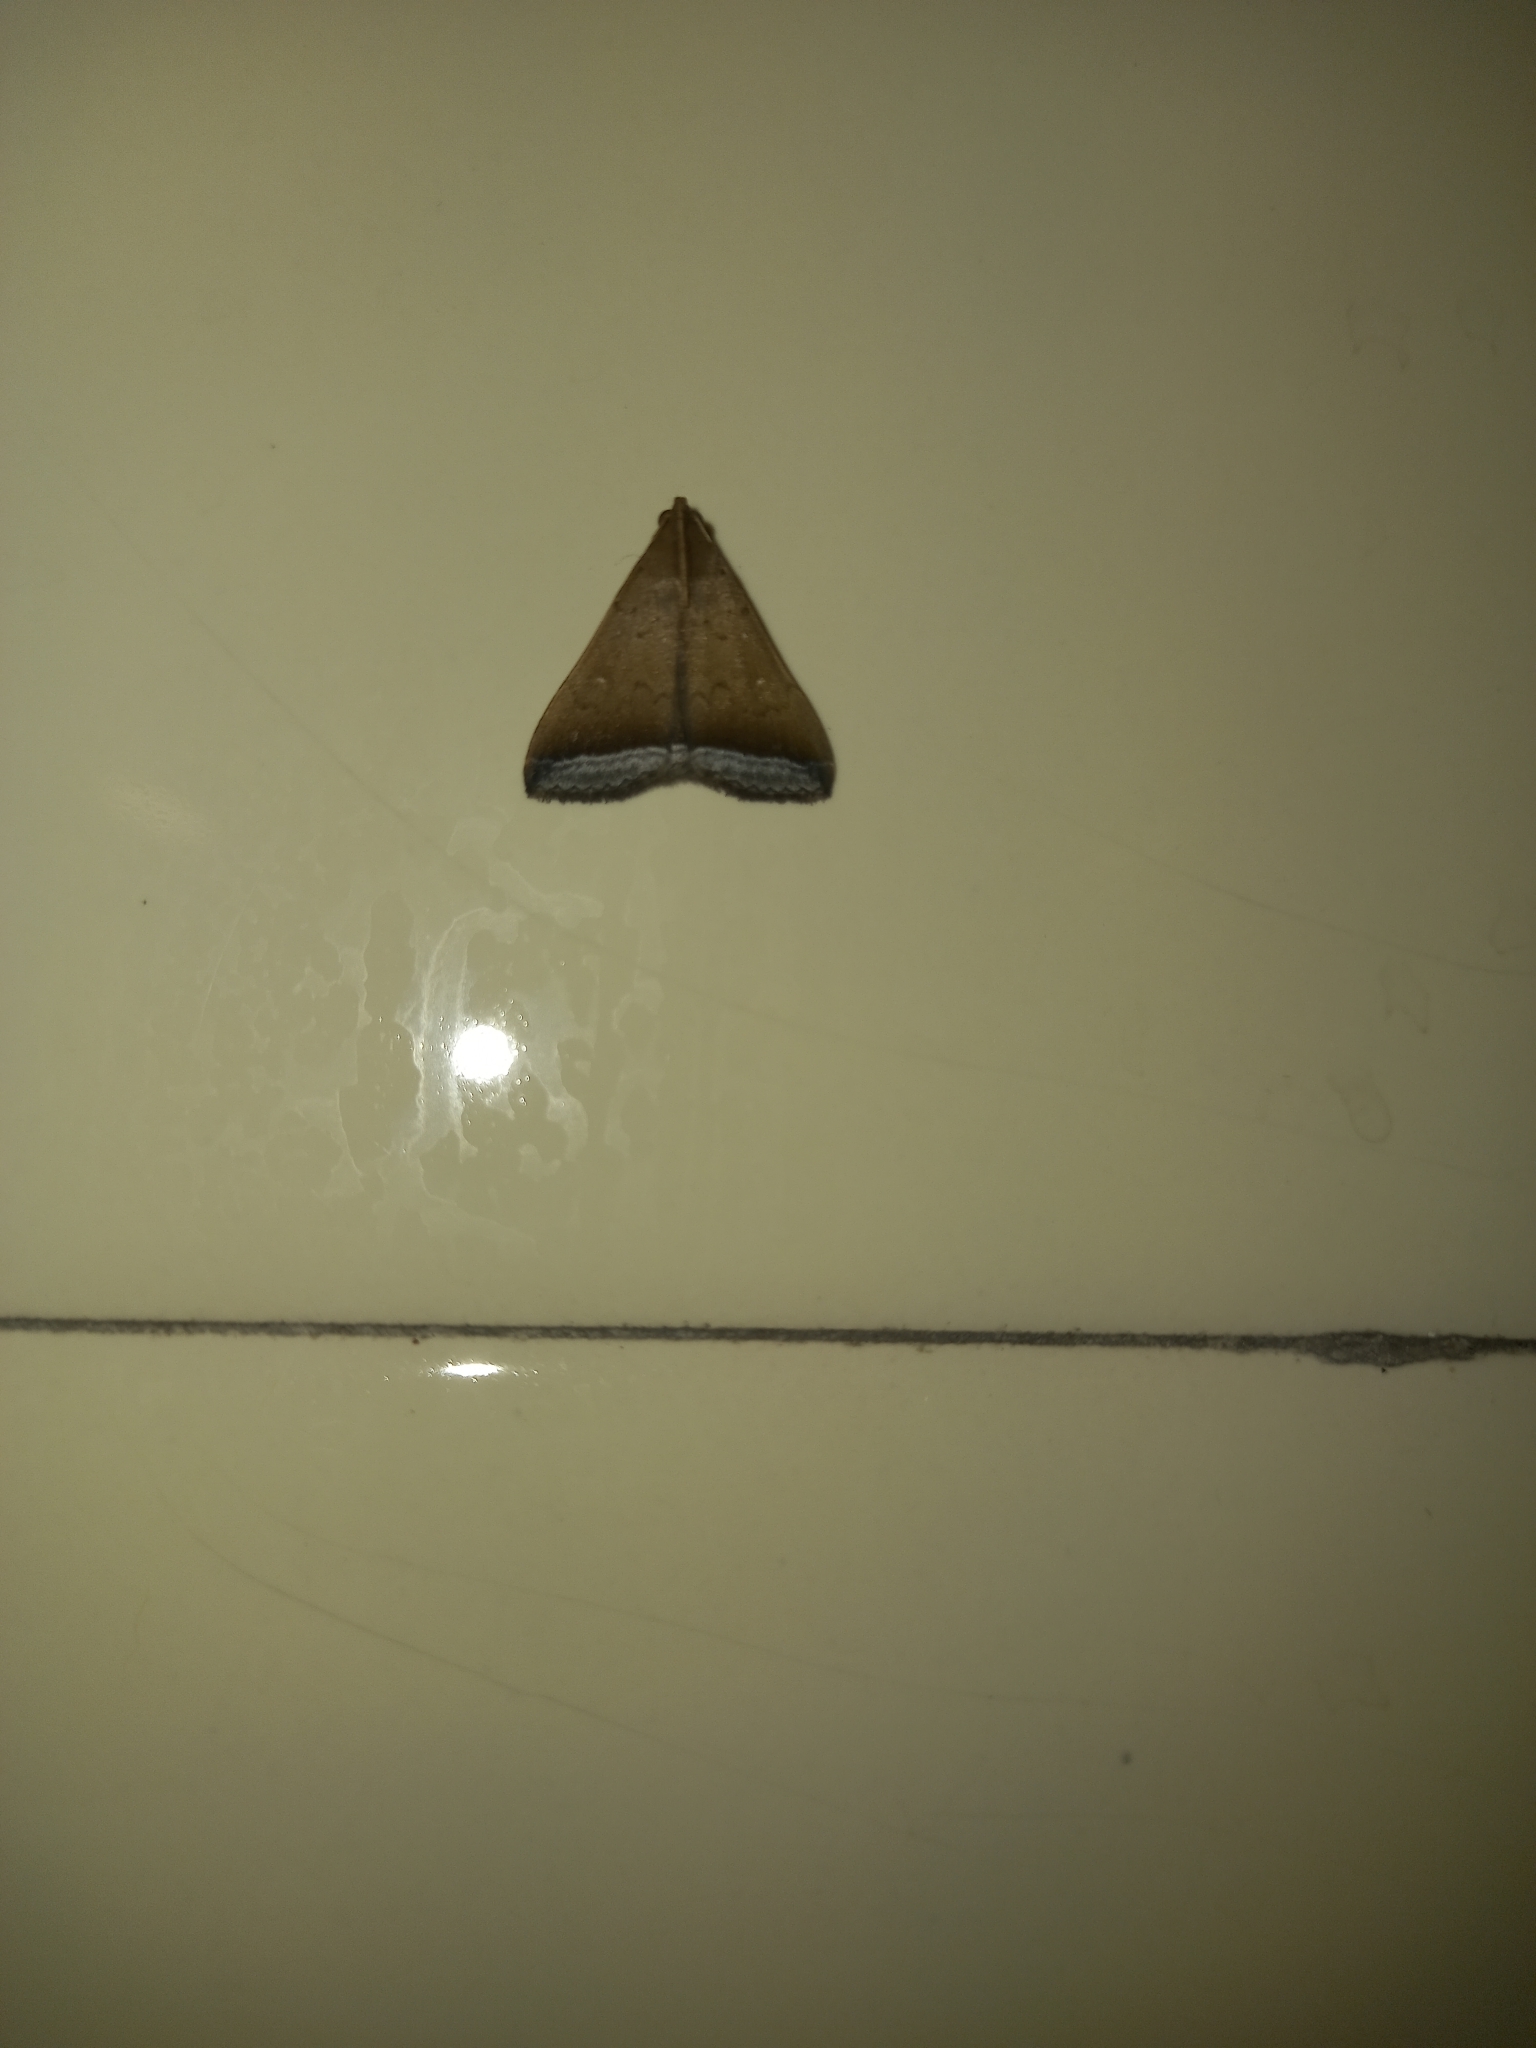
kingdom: Animalia
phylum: Arthropoda
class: Insecta
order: Lepidoptera
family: Erebidae
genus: Mamerthes
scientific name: Mamerthes orionalis
